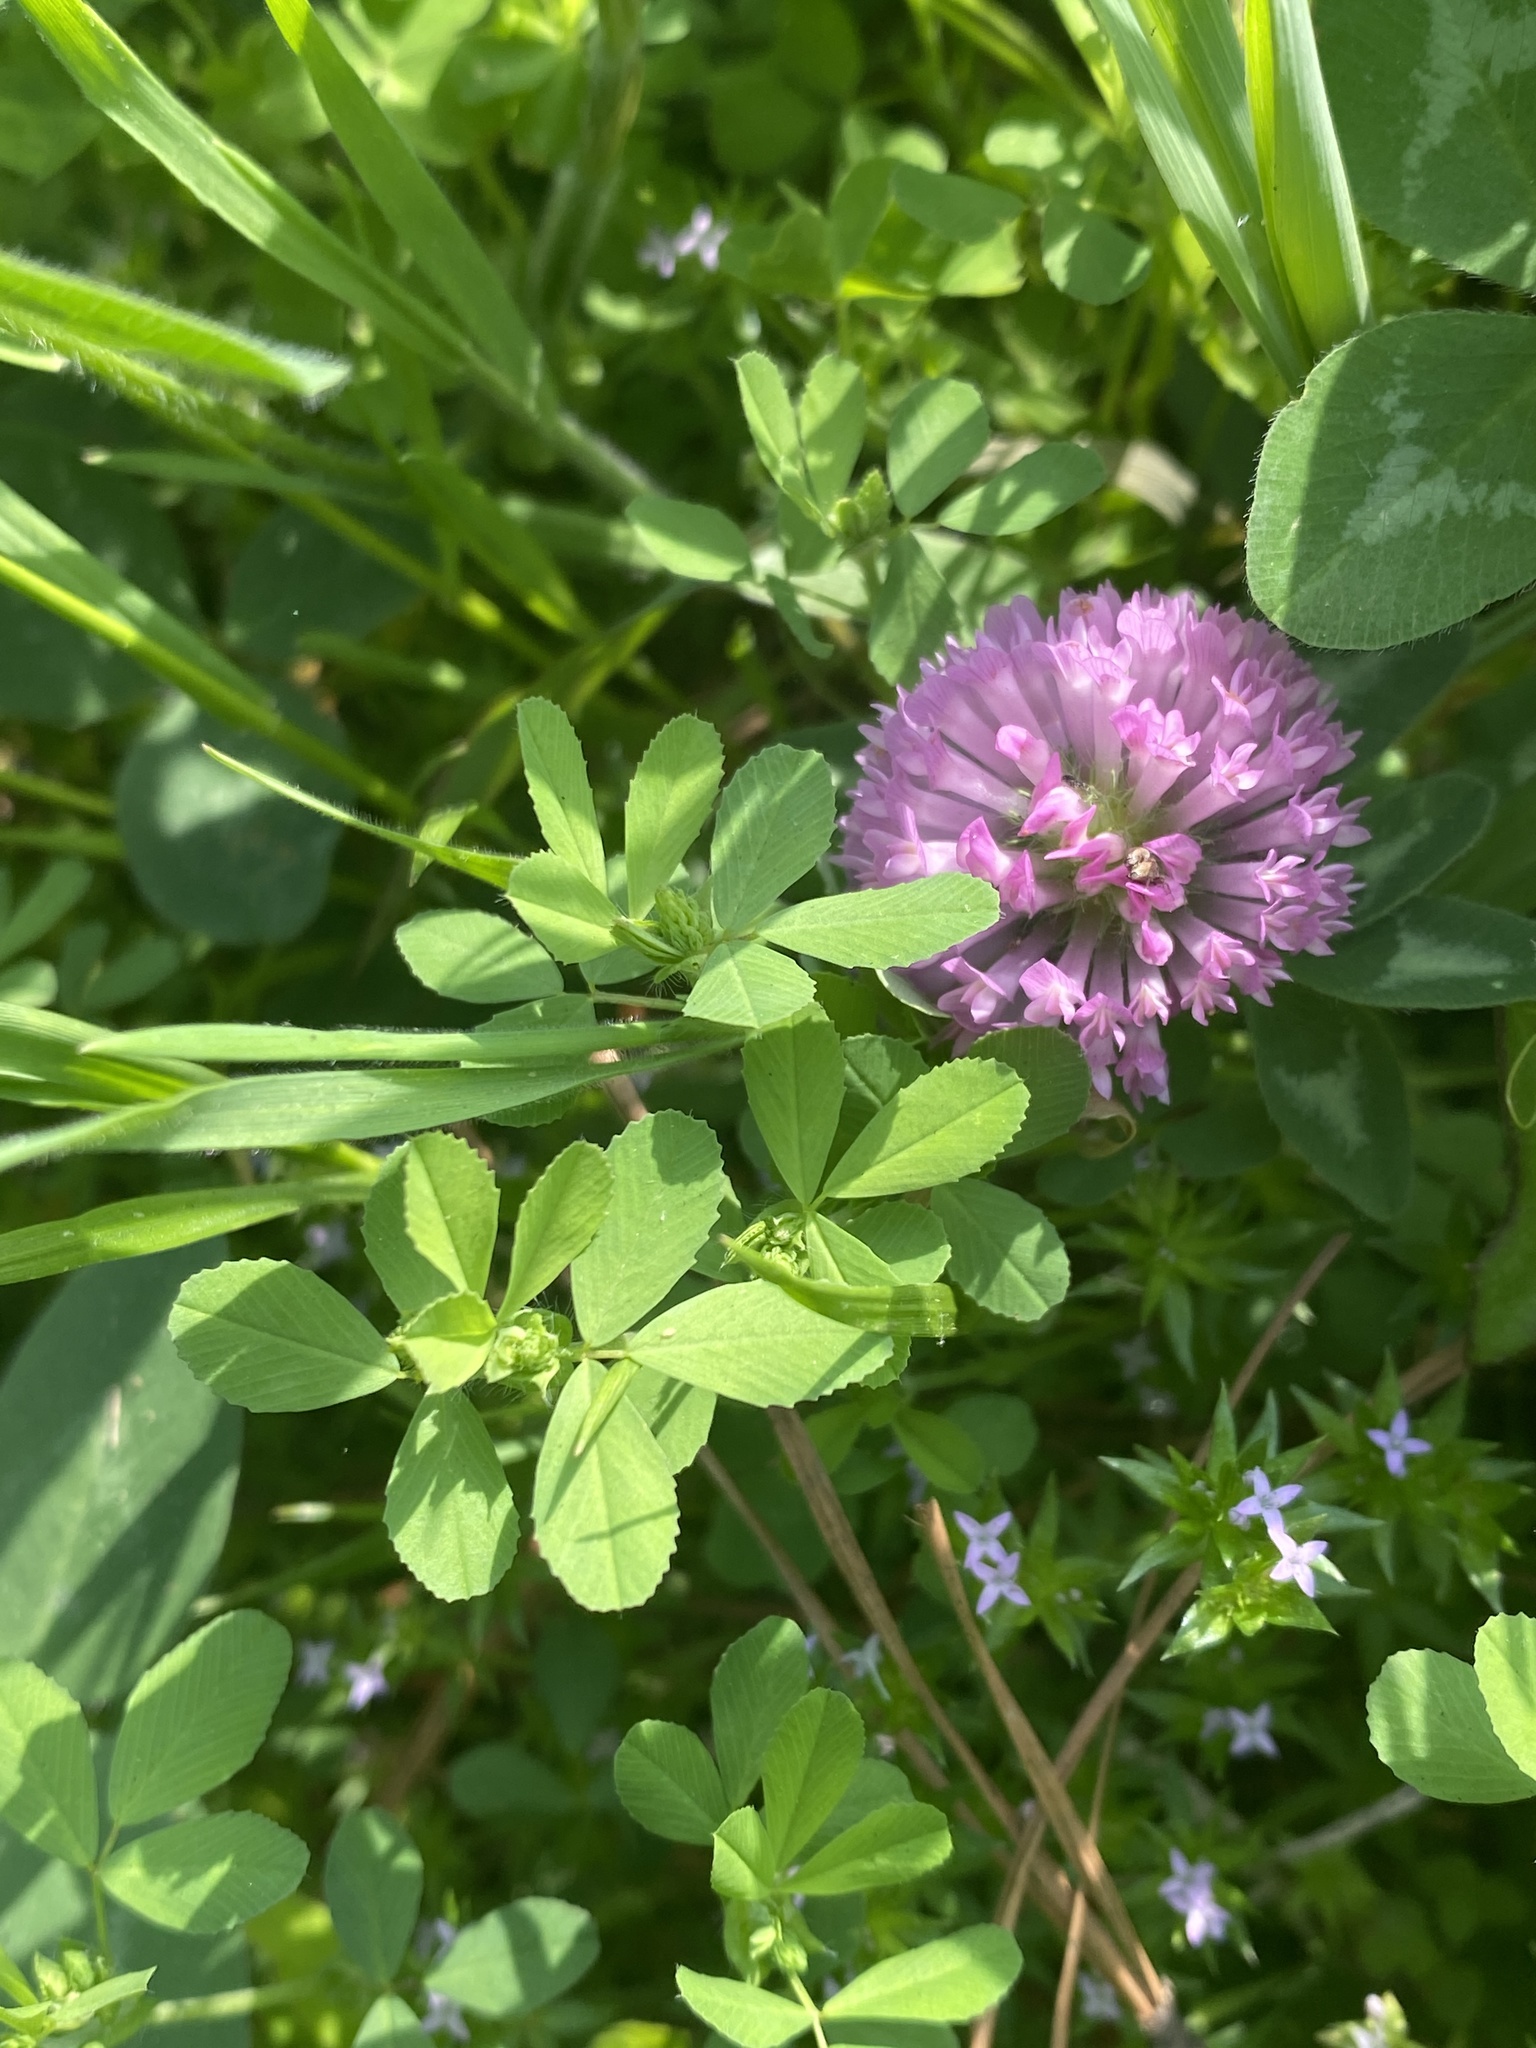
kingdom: Plantae
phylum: Tracheophyta
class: Magnoliopsida
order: Fabales
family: Fabaceae
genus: Trifolium
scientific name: Trifolium pratense
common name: Red clover
